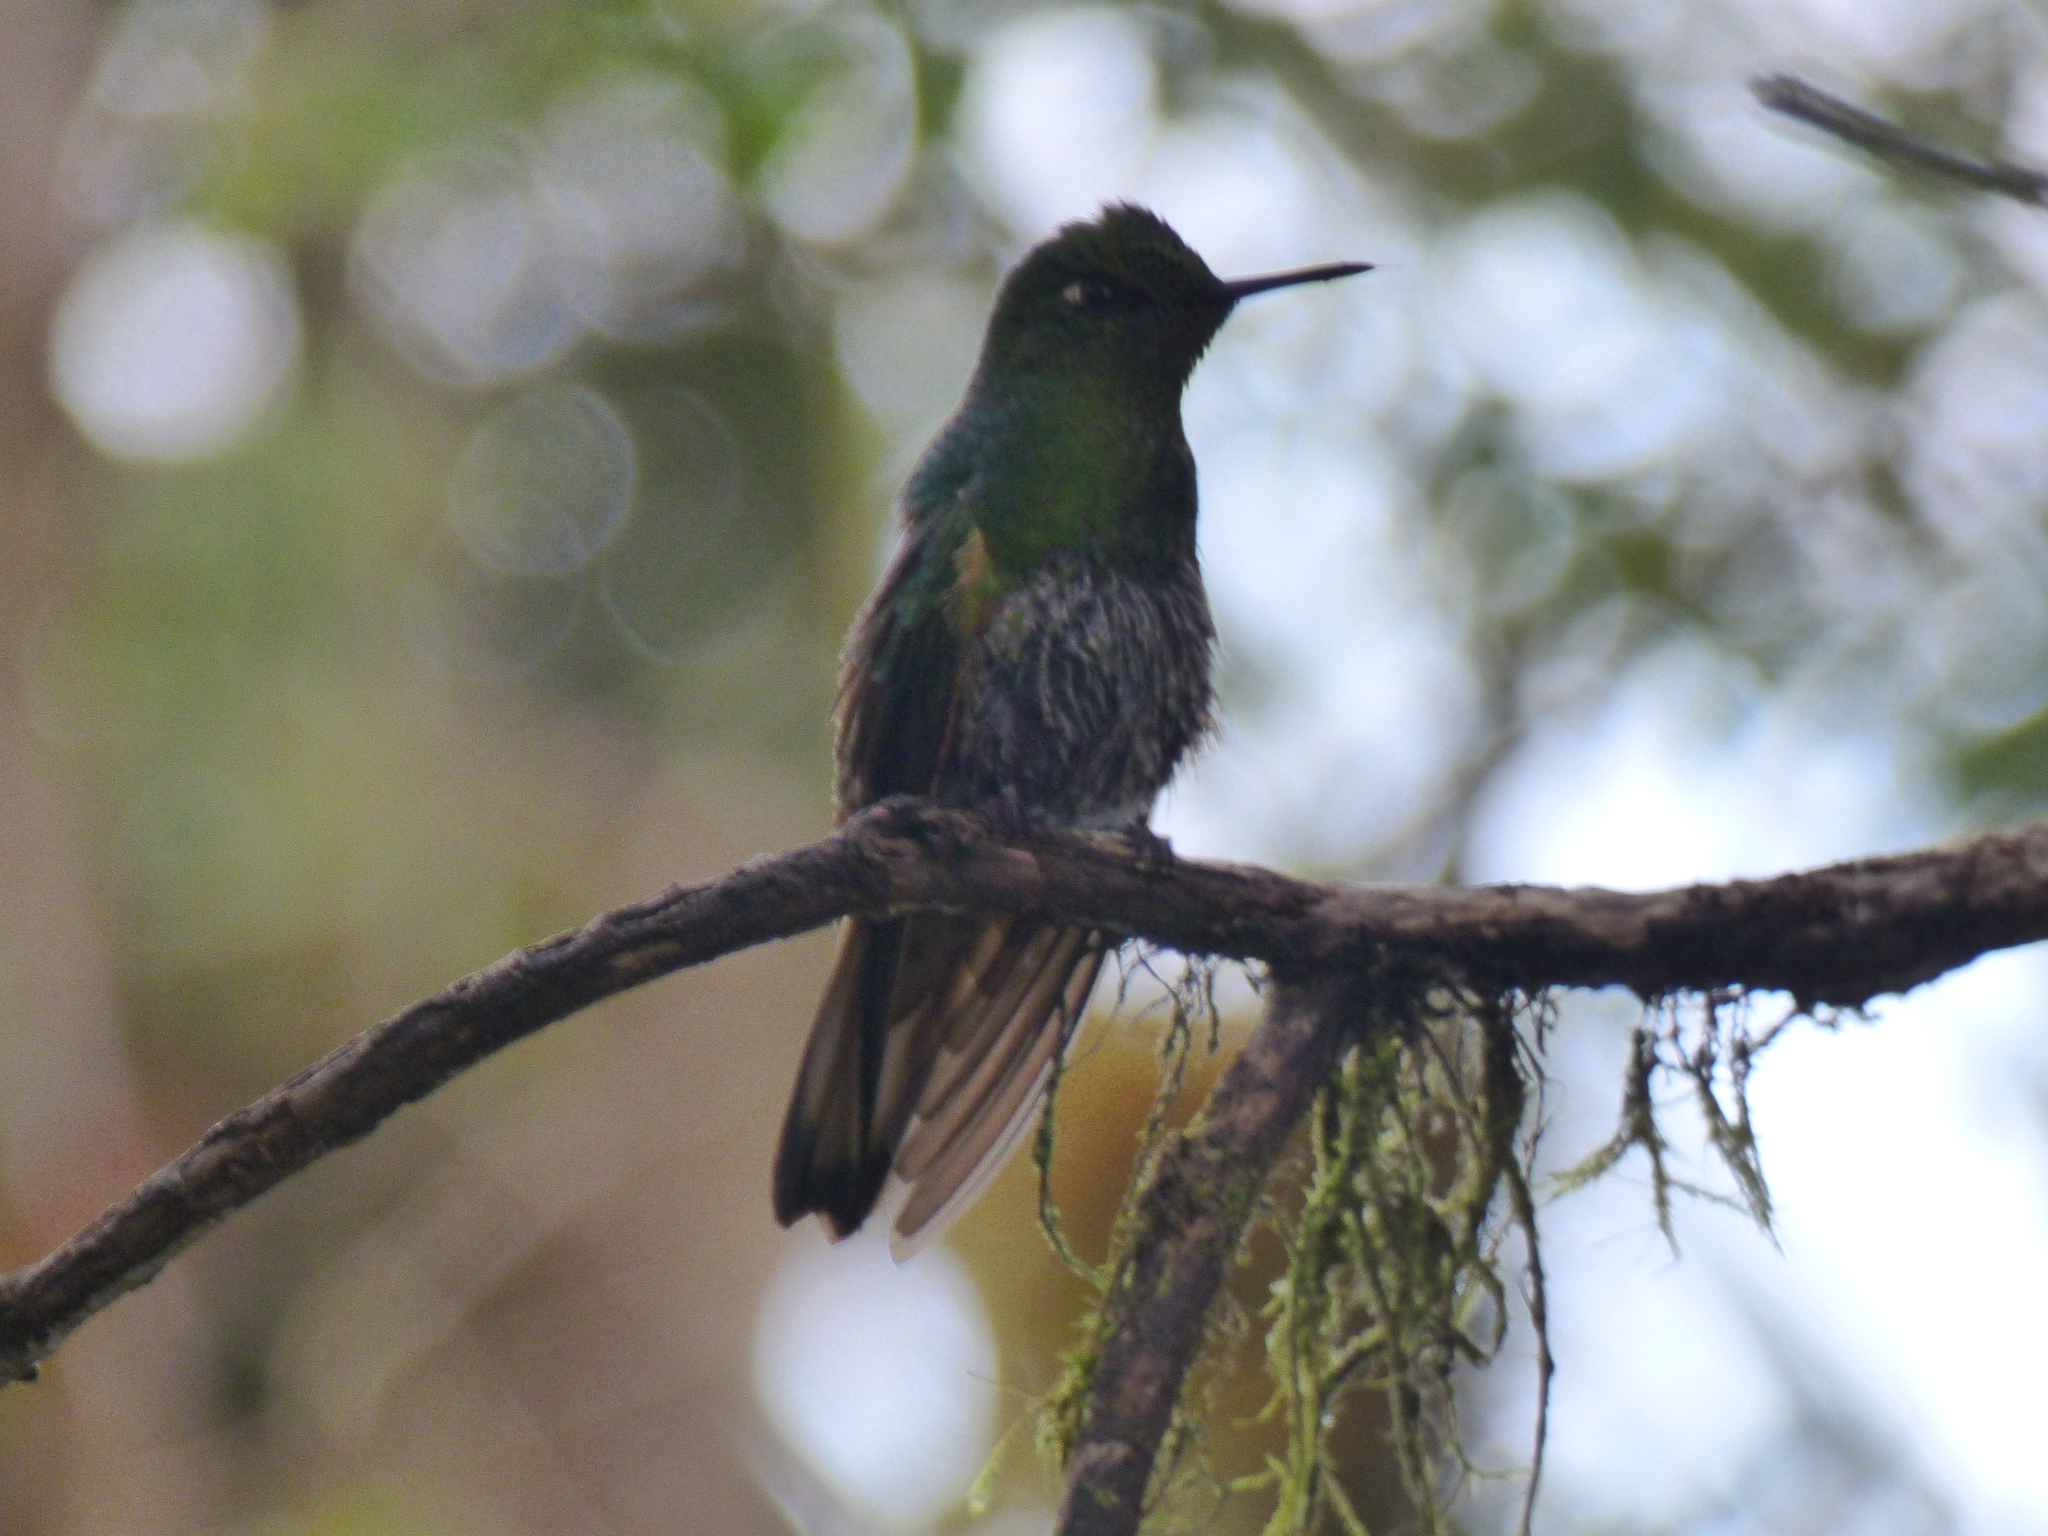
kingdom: Animalia
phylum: Chordata
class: Aves
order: Apodiformes
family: Trochilidae
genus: Boissonneaua
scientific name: Boissonneaua flavescens
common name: Buff-tailed coronet
